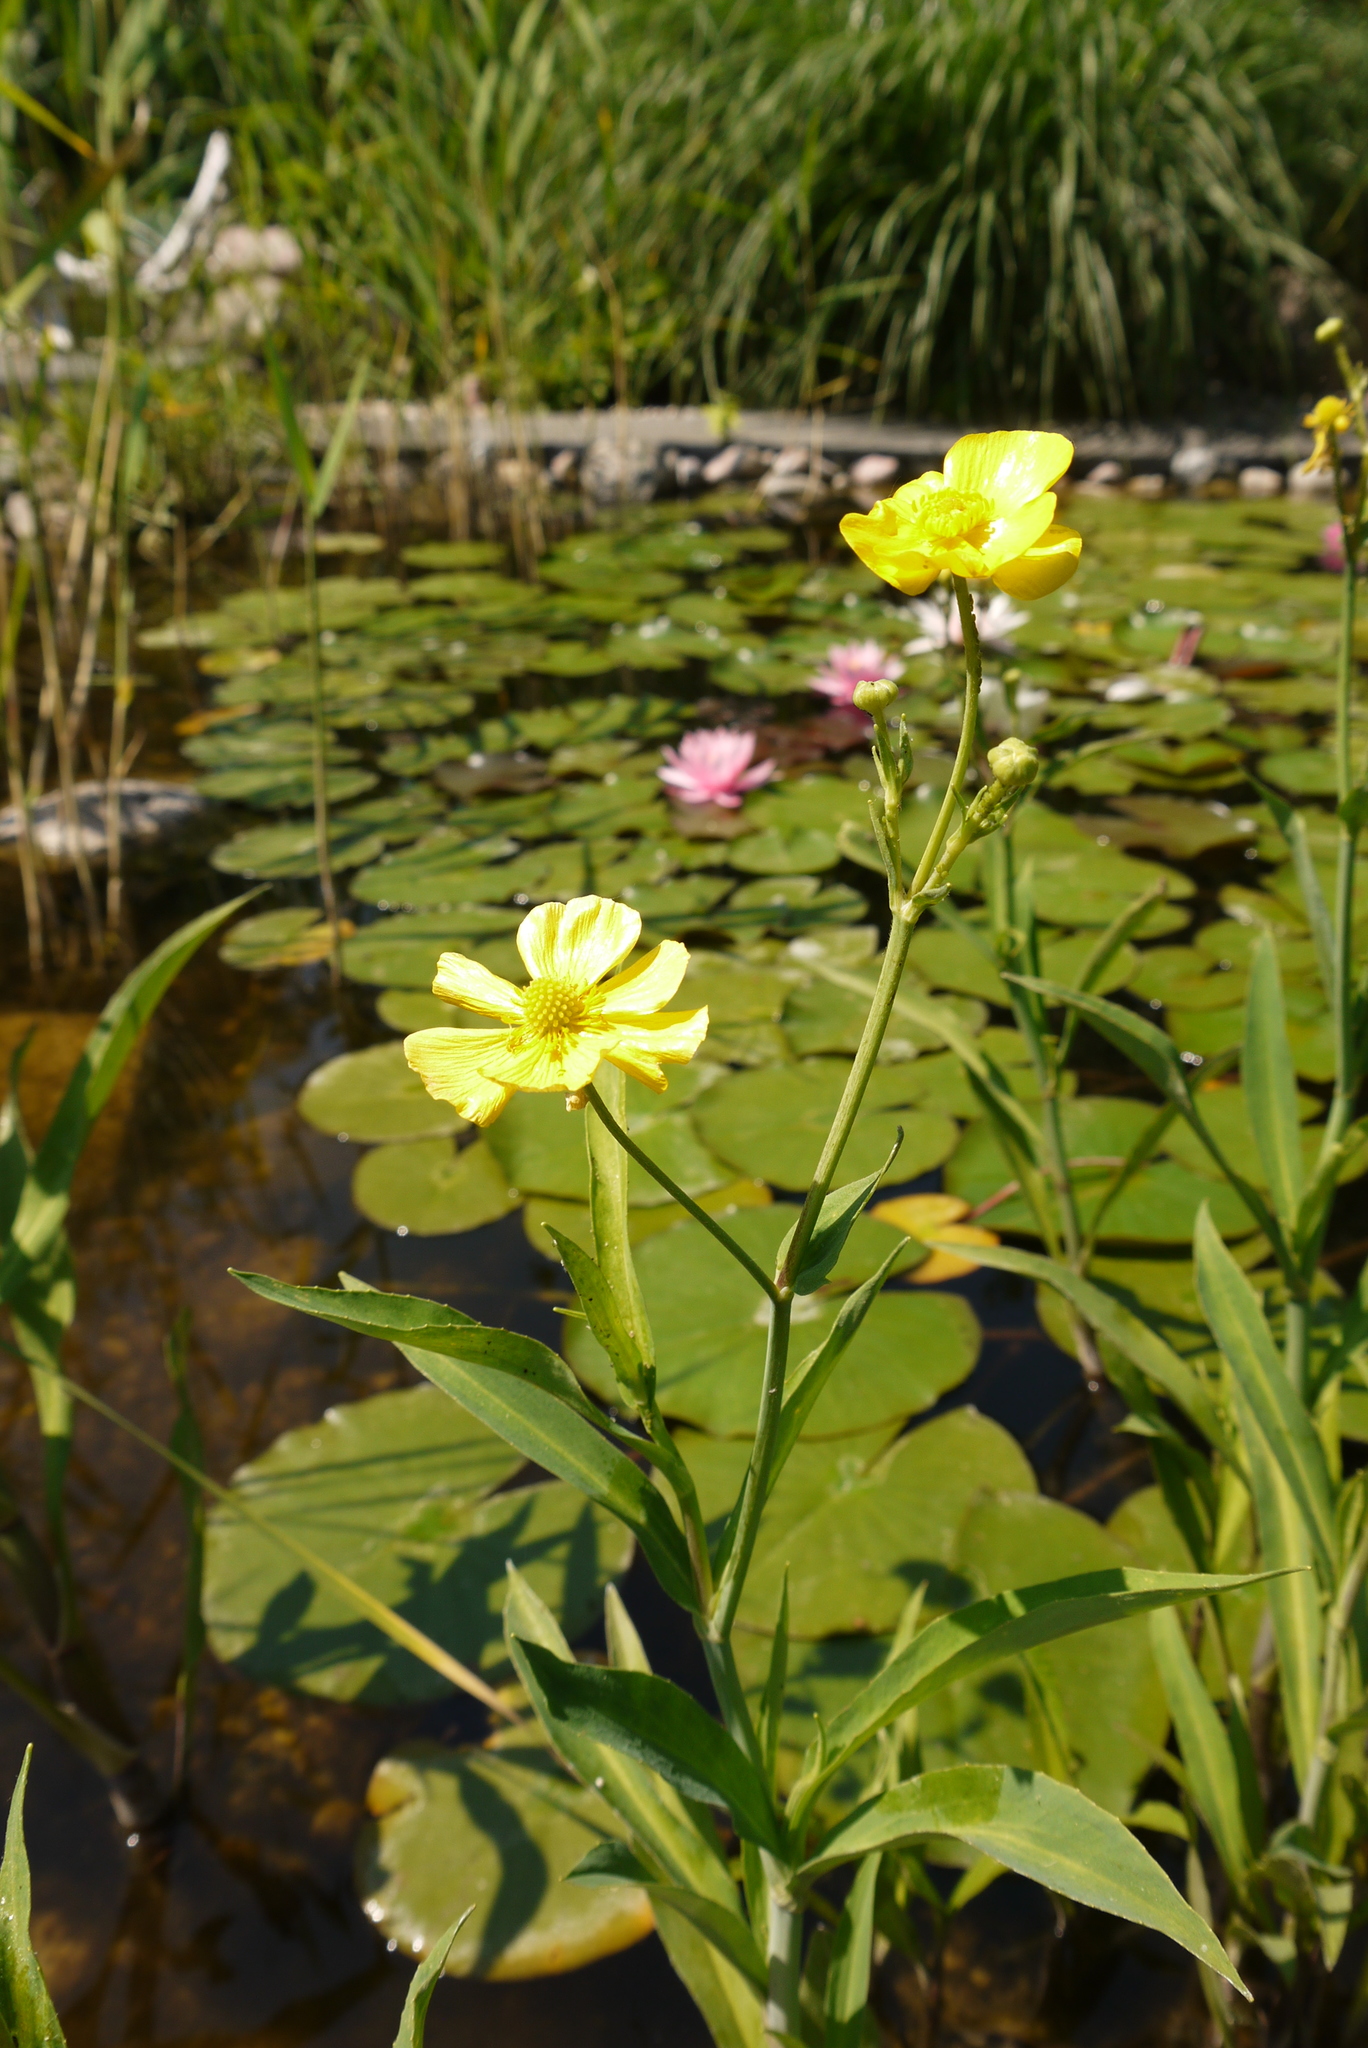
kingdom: Plantae
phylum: Tracheophyta
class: Magnoliopsida
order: Ranunculales
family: Ranunculaceae
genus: Ranunculus
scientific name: Ranunculus acris
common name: Meadow buttercup
